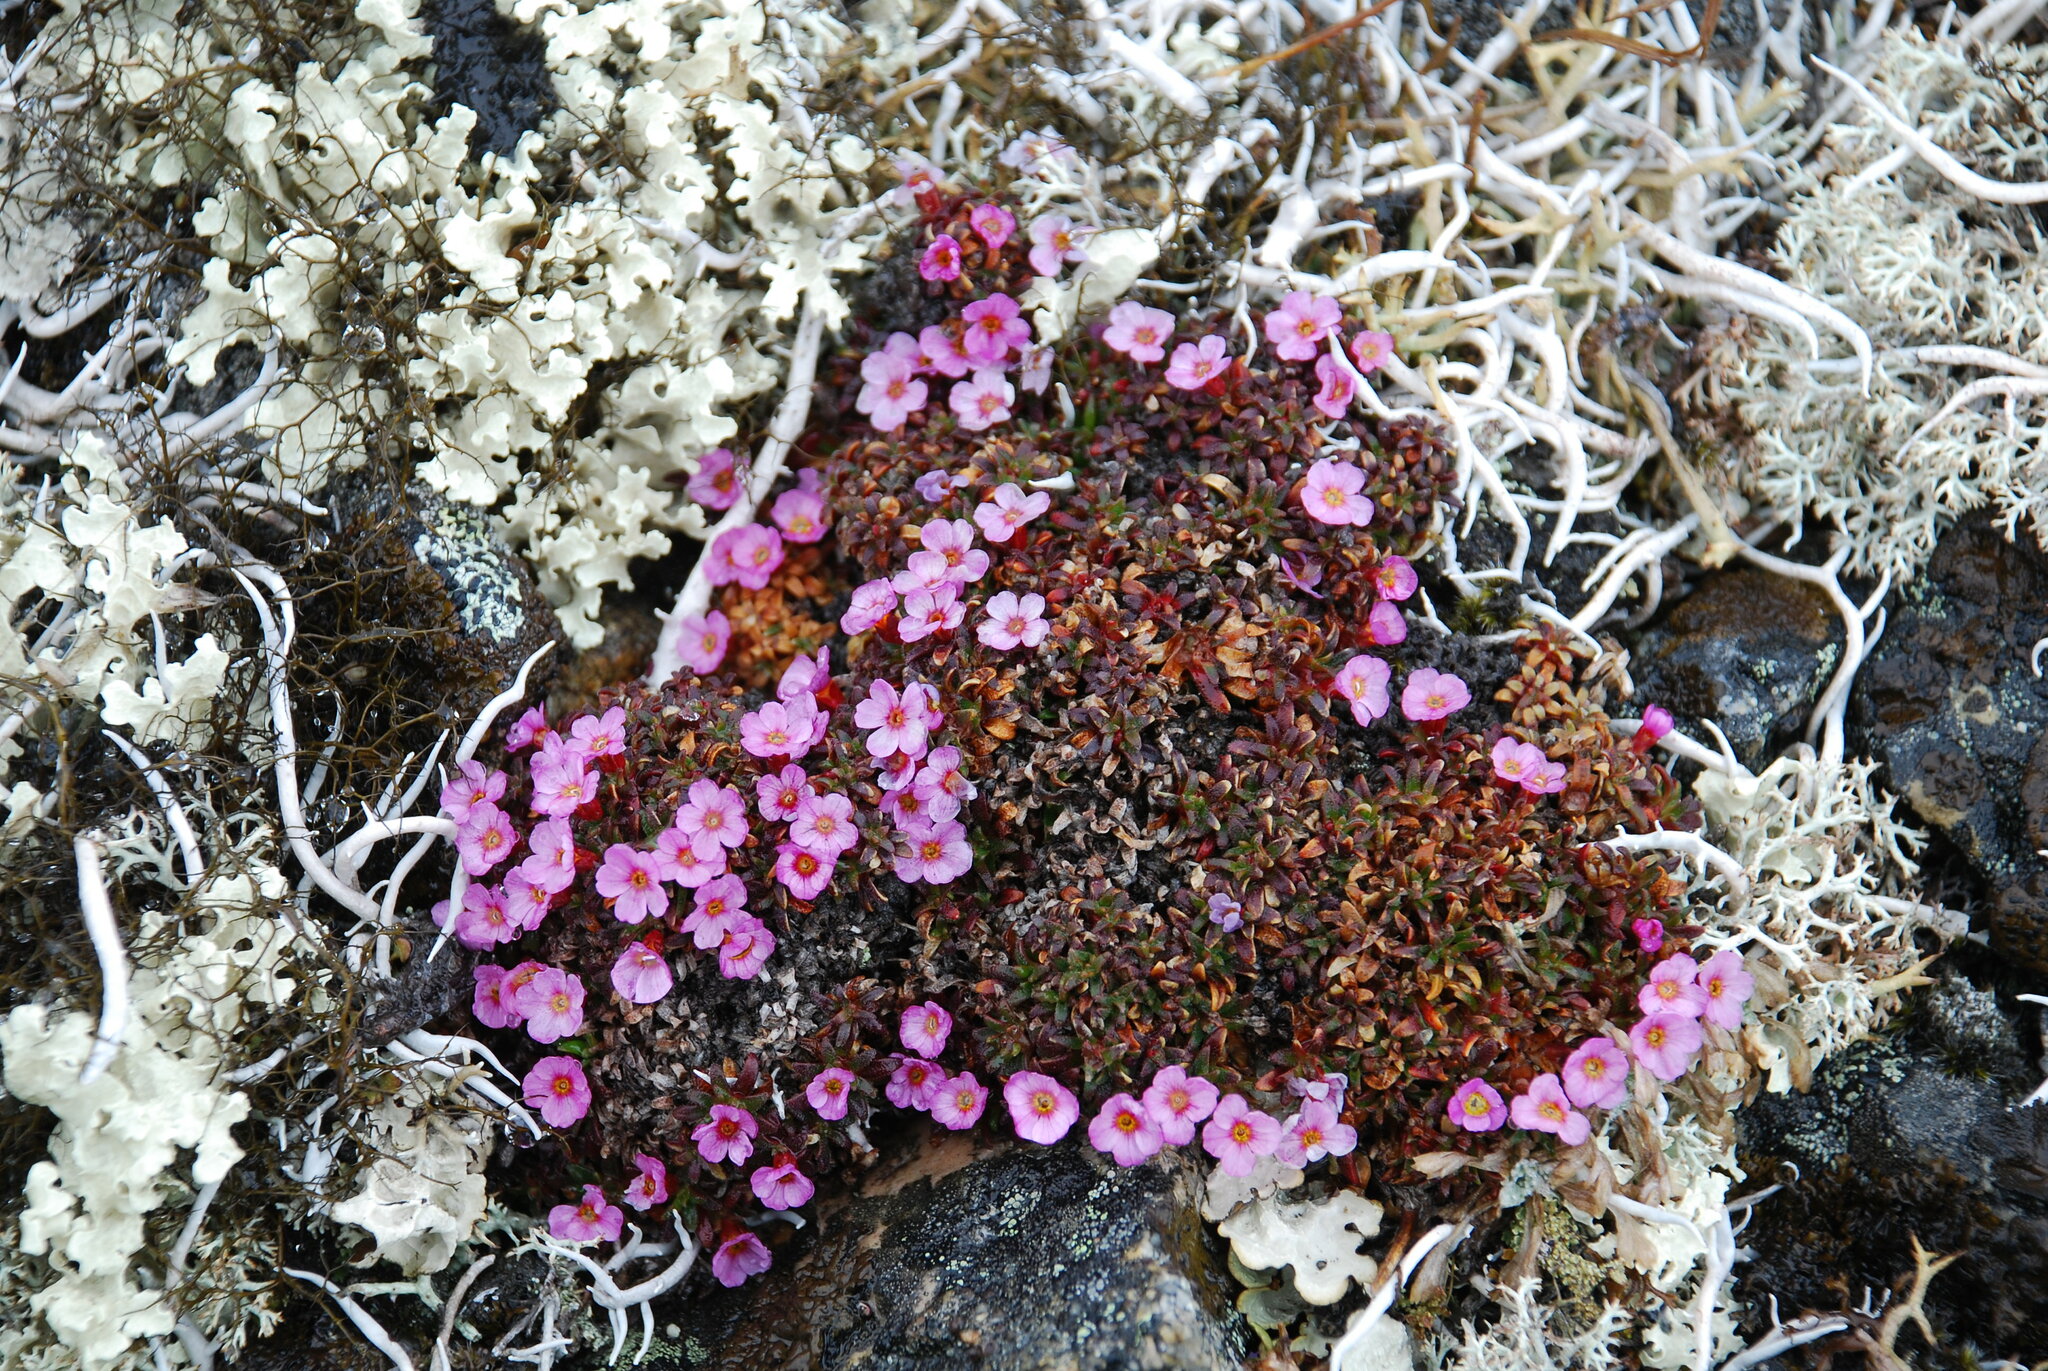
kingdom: Plantae
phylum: Tracheophyta
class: Magnoliopsida
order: Ericales
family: Primulaceae
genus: Androsace
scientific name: Androsace ochotensis
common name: Alaska dwarf-primrose
